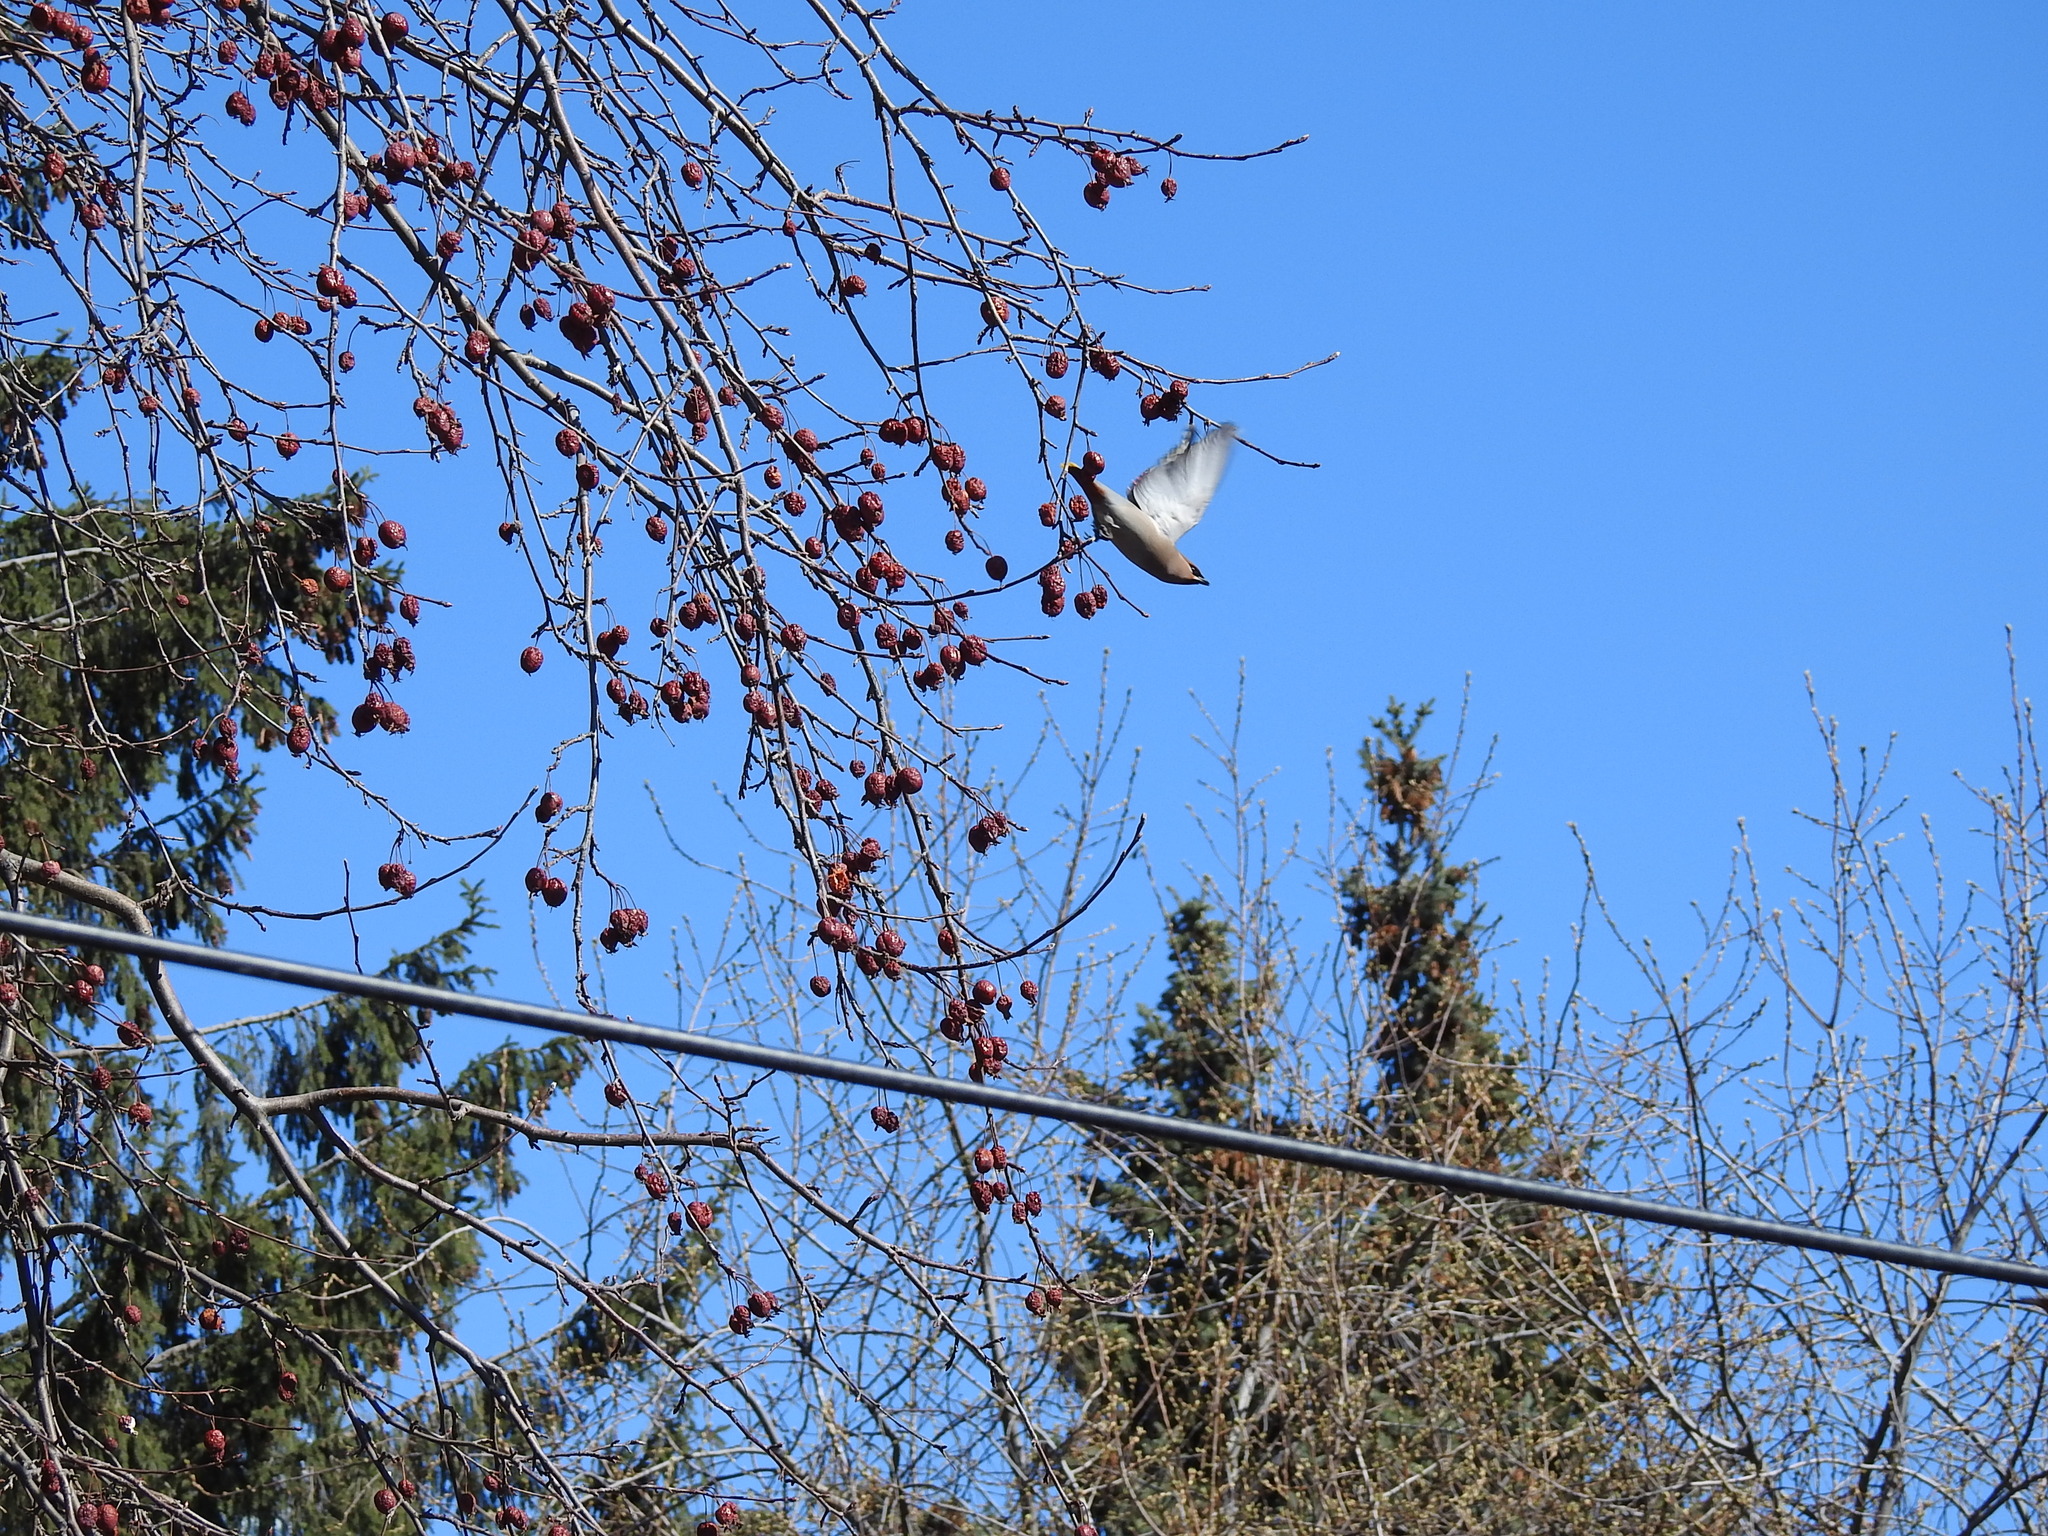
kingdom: Animalia
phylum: Chordata
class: Aves
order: Passeriformes
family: Bombycillidae
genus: Bombycilla
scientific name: Bombycilla garrulus
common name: Bohemian waxwing
